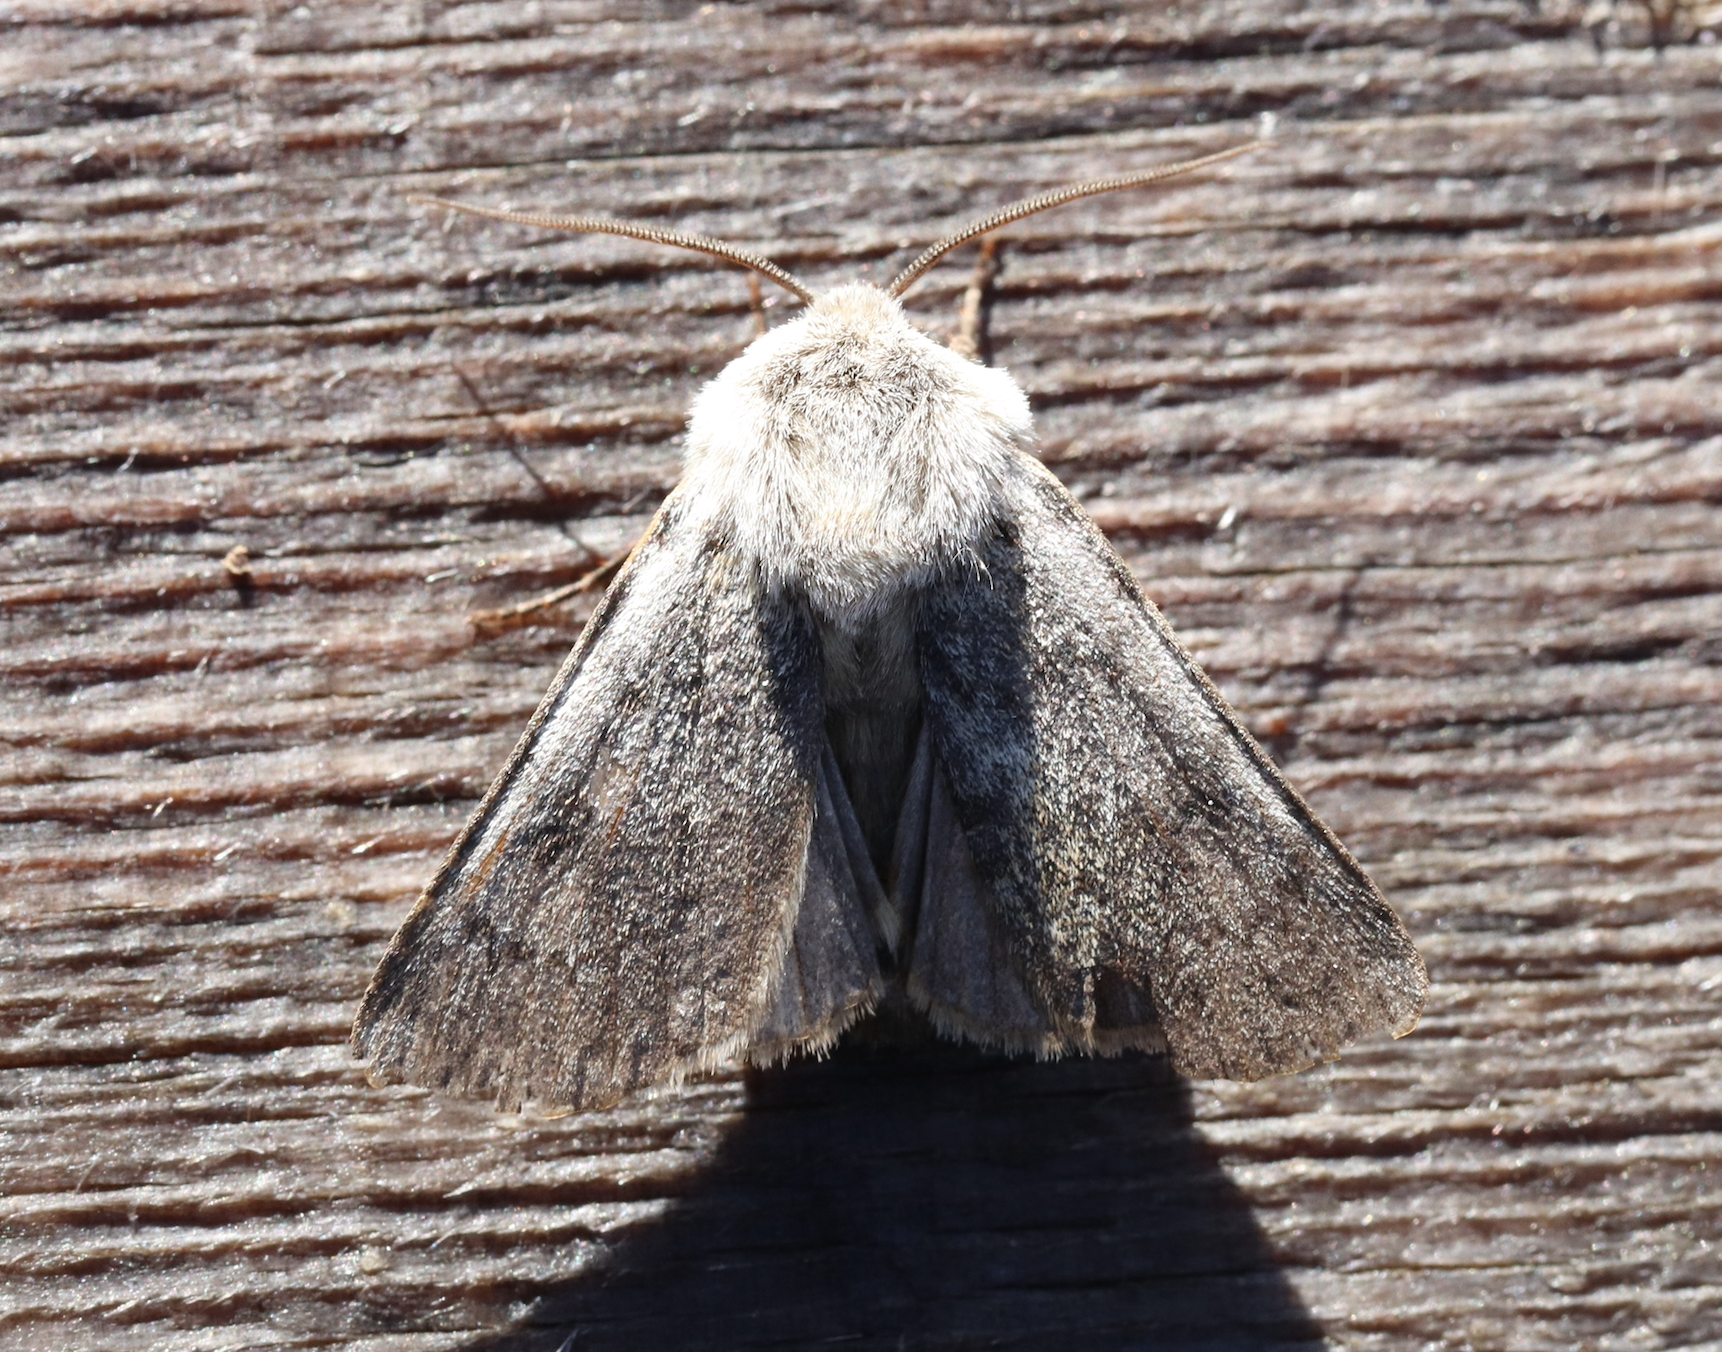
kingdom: Animalia
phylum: Arthropoda
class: Insecta
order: Lepidoptera
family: Noctuidae
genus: Agrotis
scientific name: Agrotis simplonia
